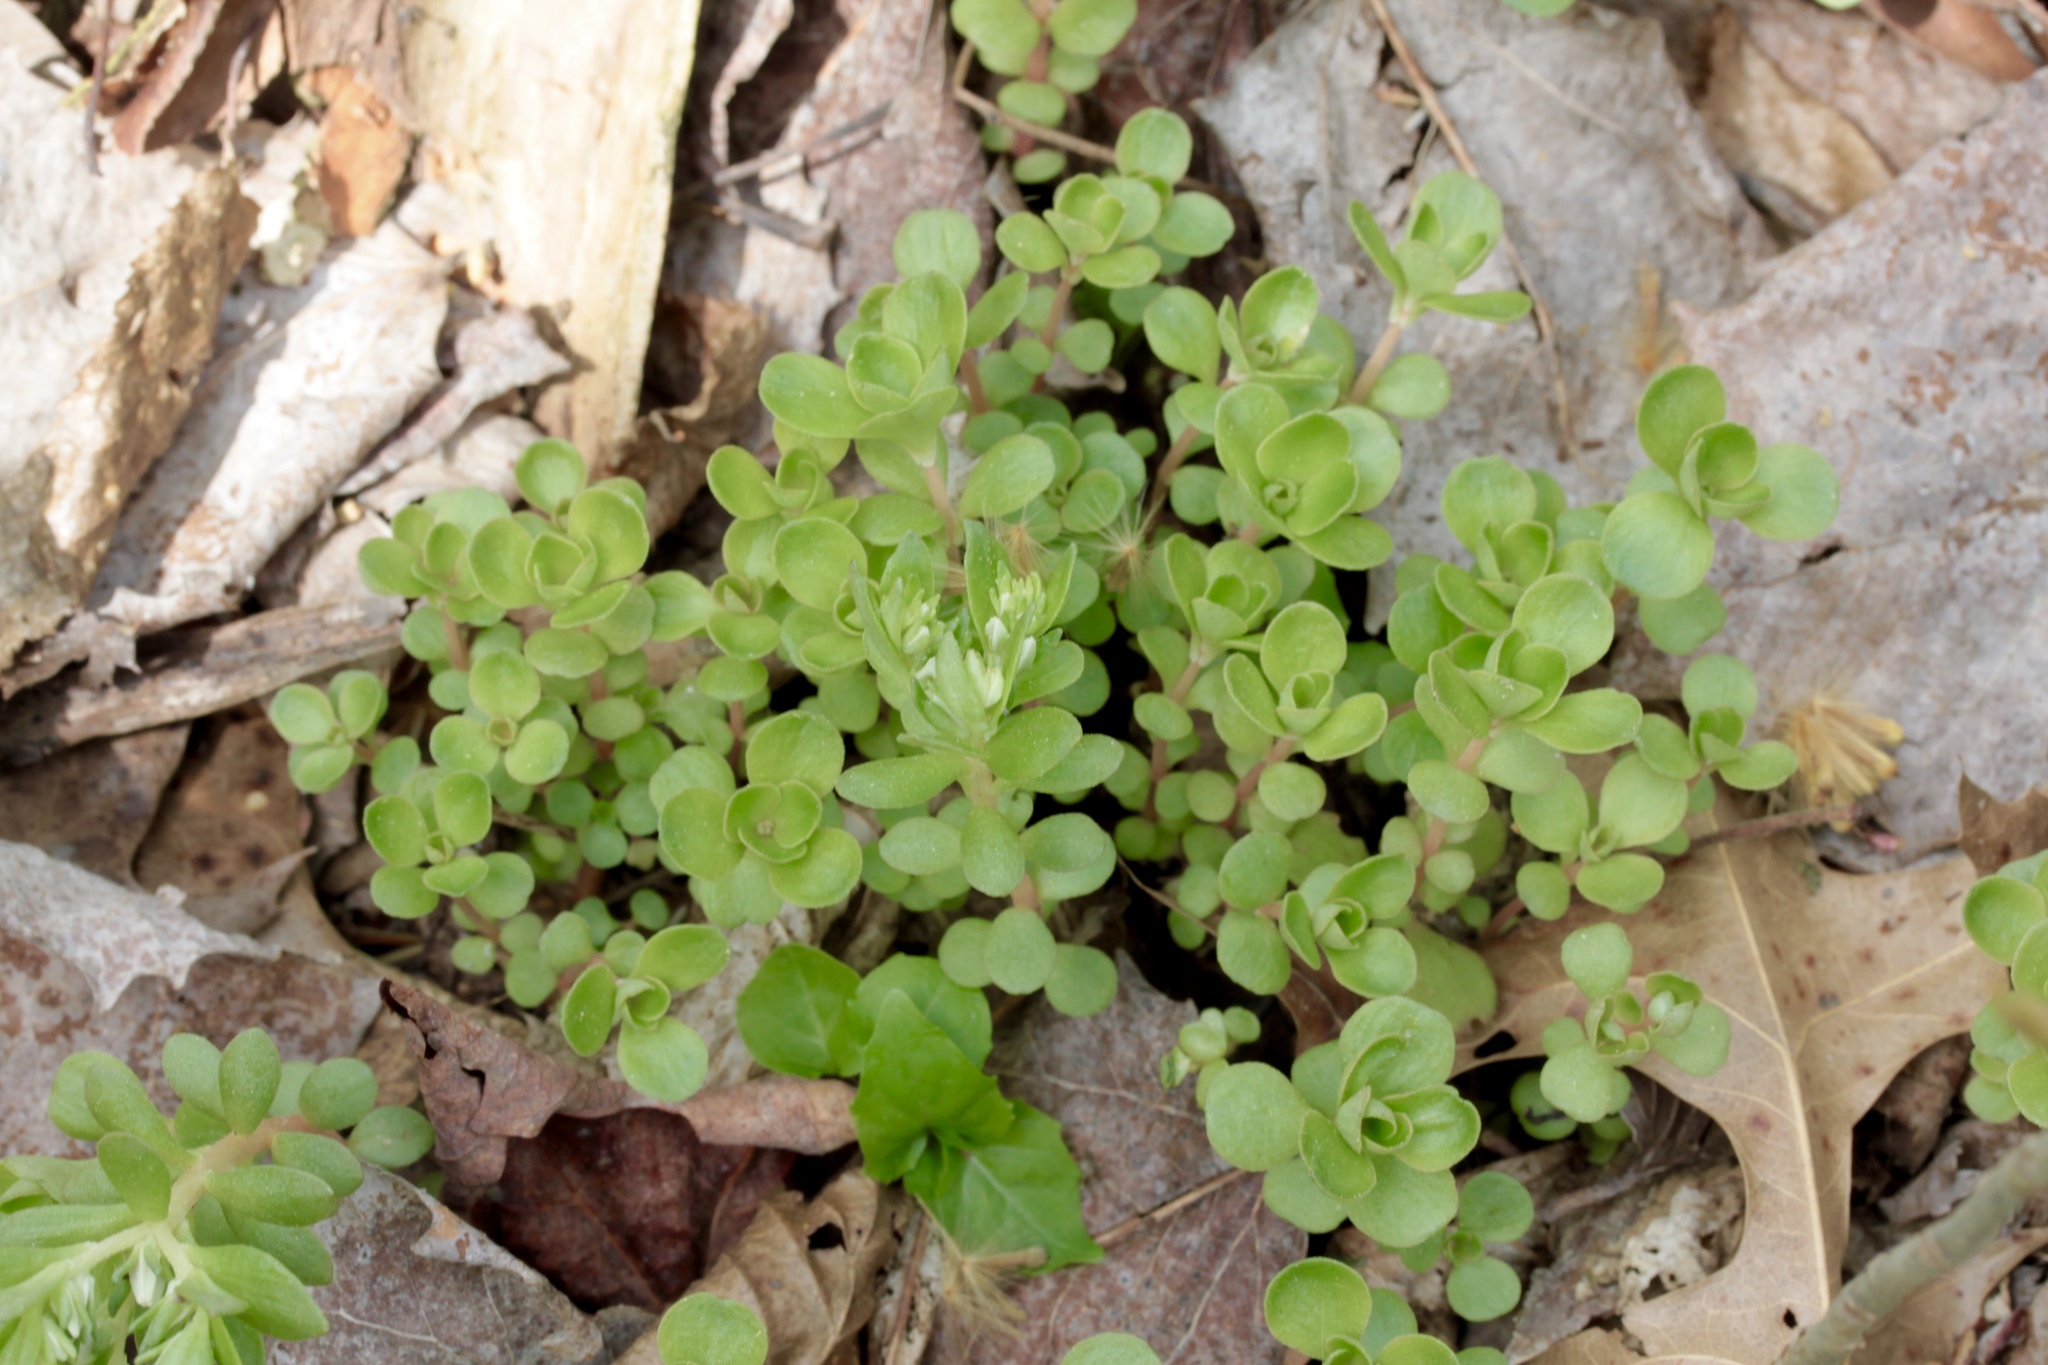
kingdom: Plantae
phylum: Tracheophyta
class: Magnoliopsida
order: Saxifragales
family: Crassulaceae
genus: Sedum
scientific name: Sedum ternatum
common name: Wild stonecrop
